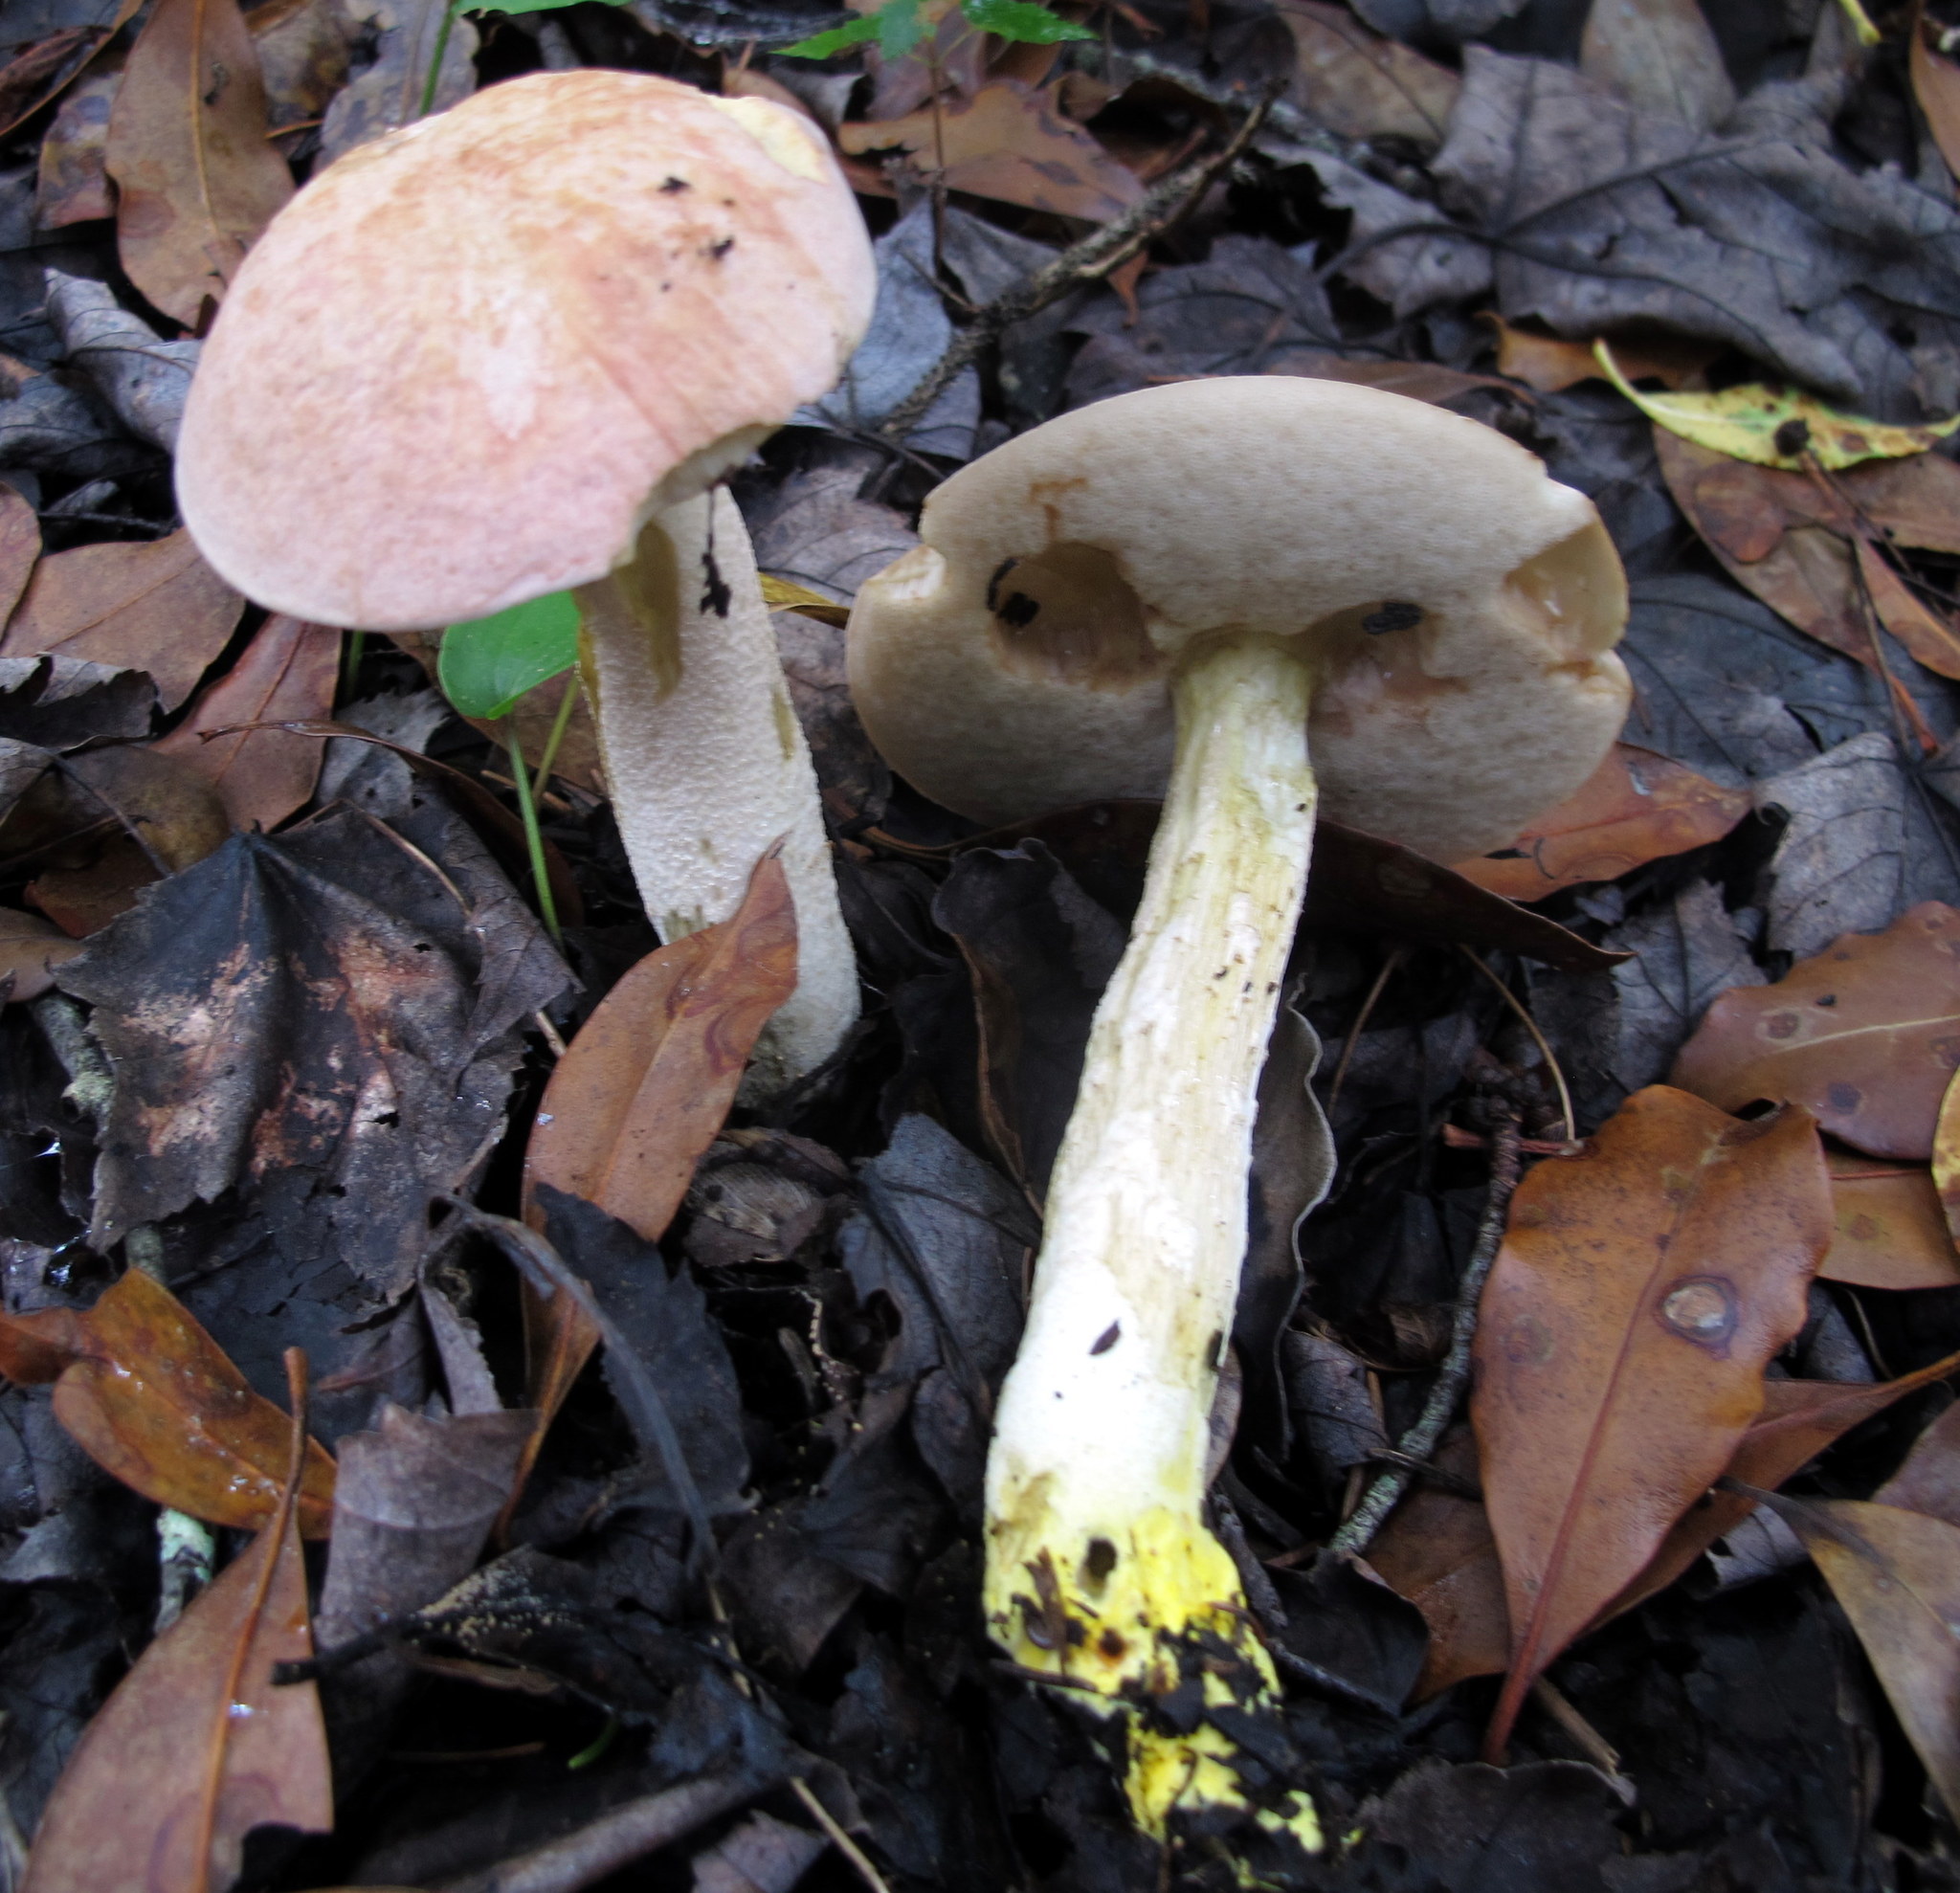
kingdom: Fungi
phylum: Basidiomycota
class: Agaricomycetes
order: Boletales
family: Boletaceae
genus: Harrya
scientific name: Harrya chromipes
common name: Chrome-footed bolete
